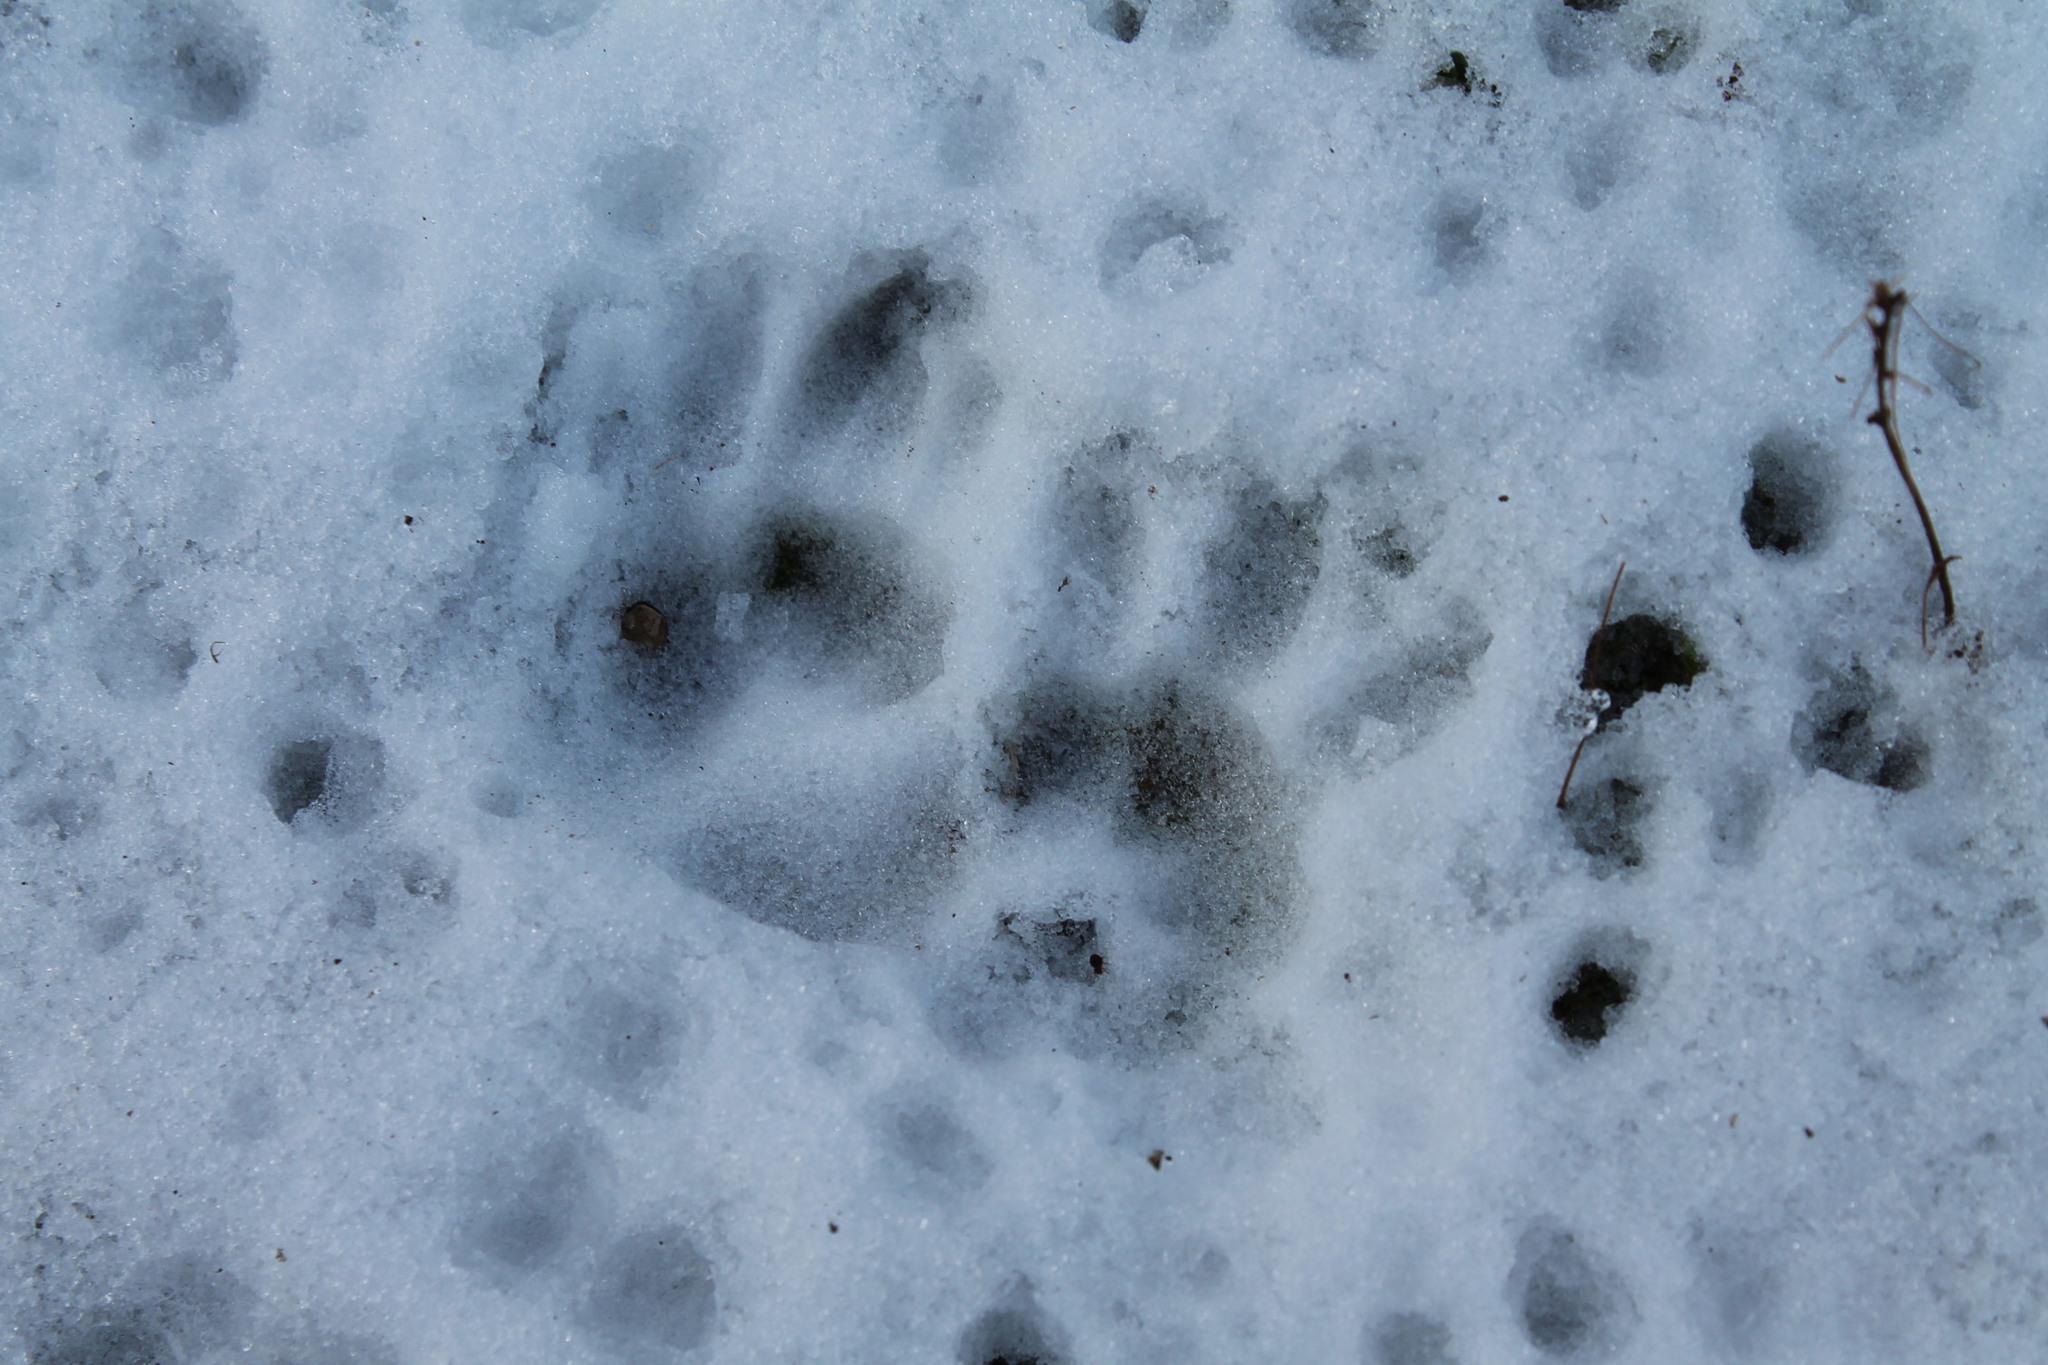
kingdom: Animalia
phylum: Chordata
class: Mammalia
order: Didelphimorphia
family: Didelphidae
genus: Didelphis
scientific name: Didelphis virginiana
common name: Virginia opossum
